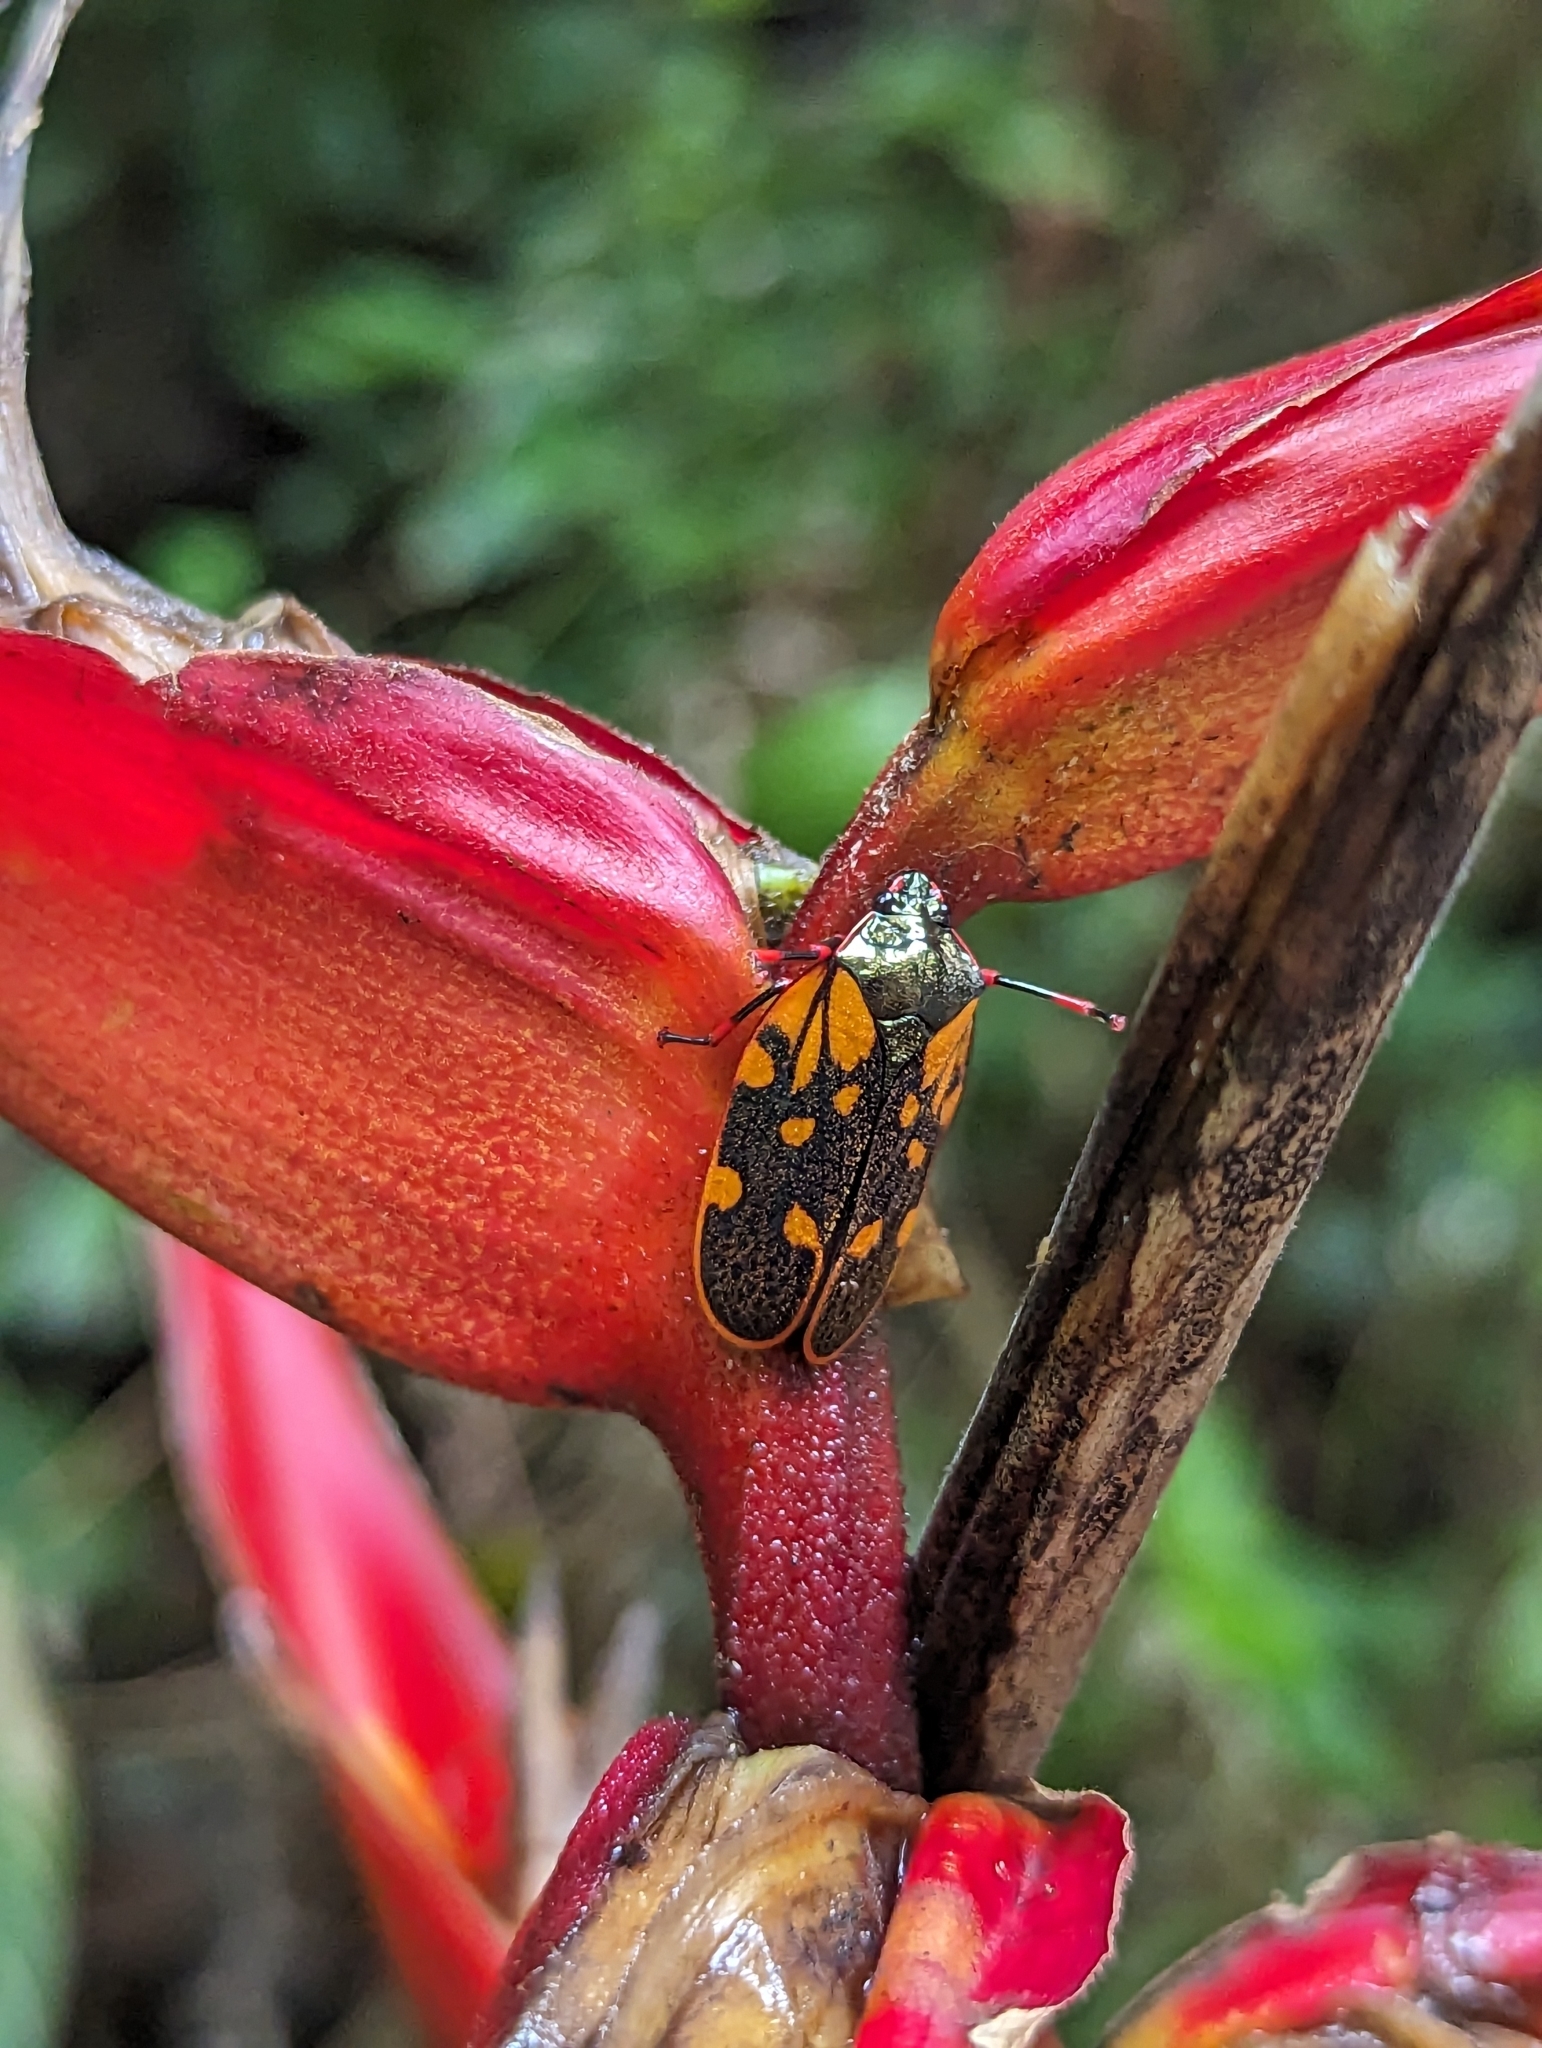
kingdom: Animalia
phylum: Arthropoda
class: Insecta
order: Hemiptera
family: Cercopidae
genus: Mahanarva
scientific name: Mahanarva costaricensis
